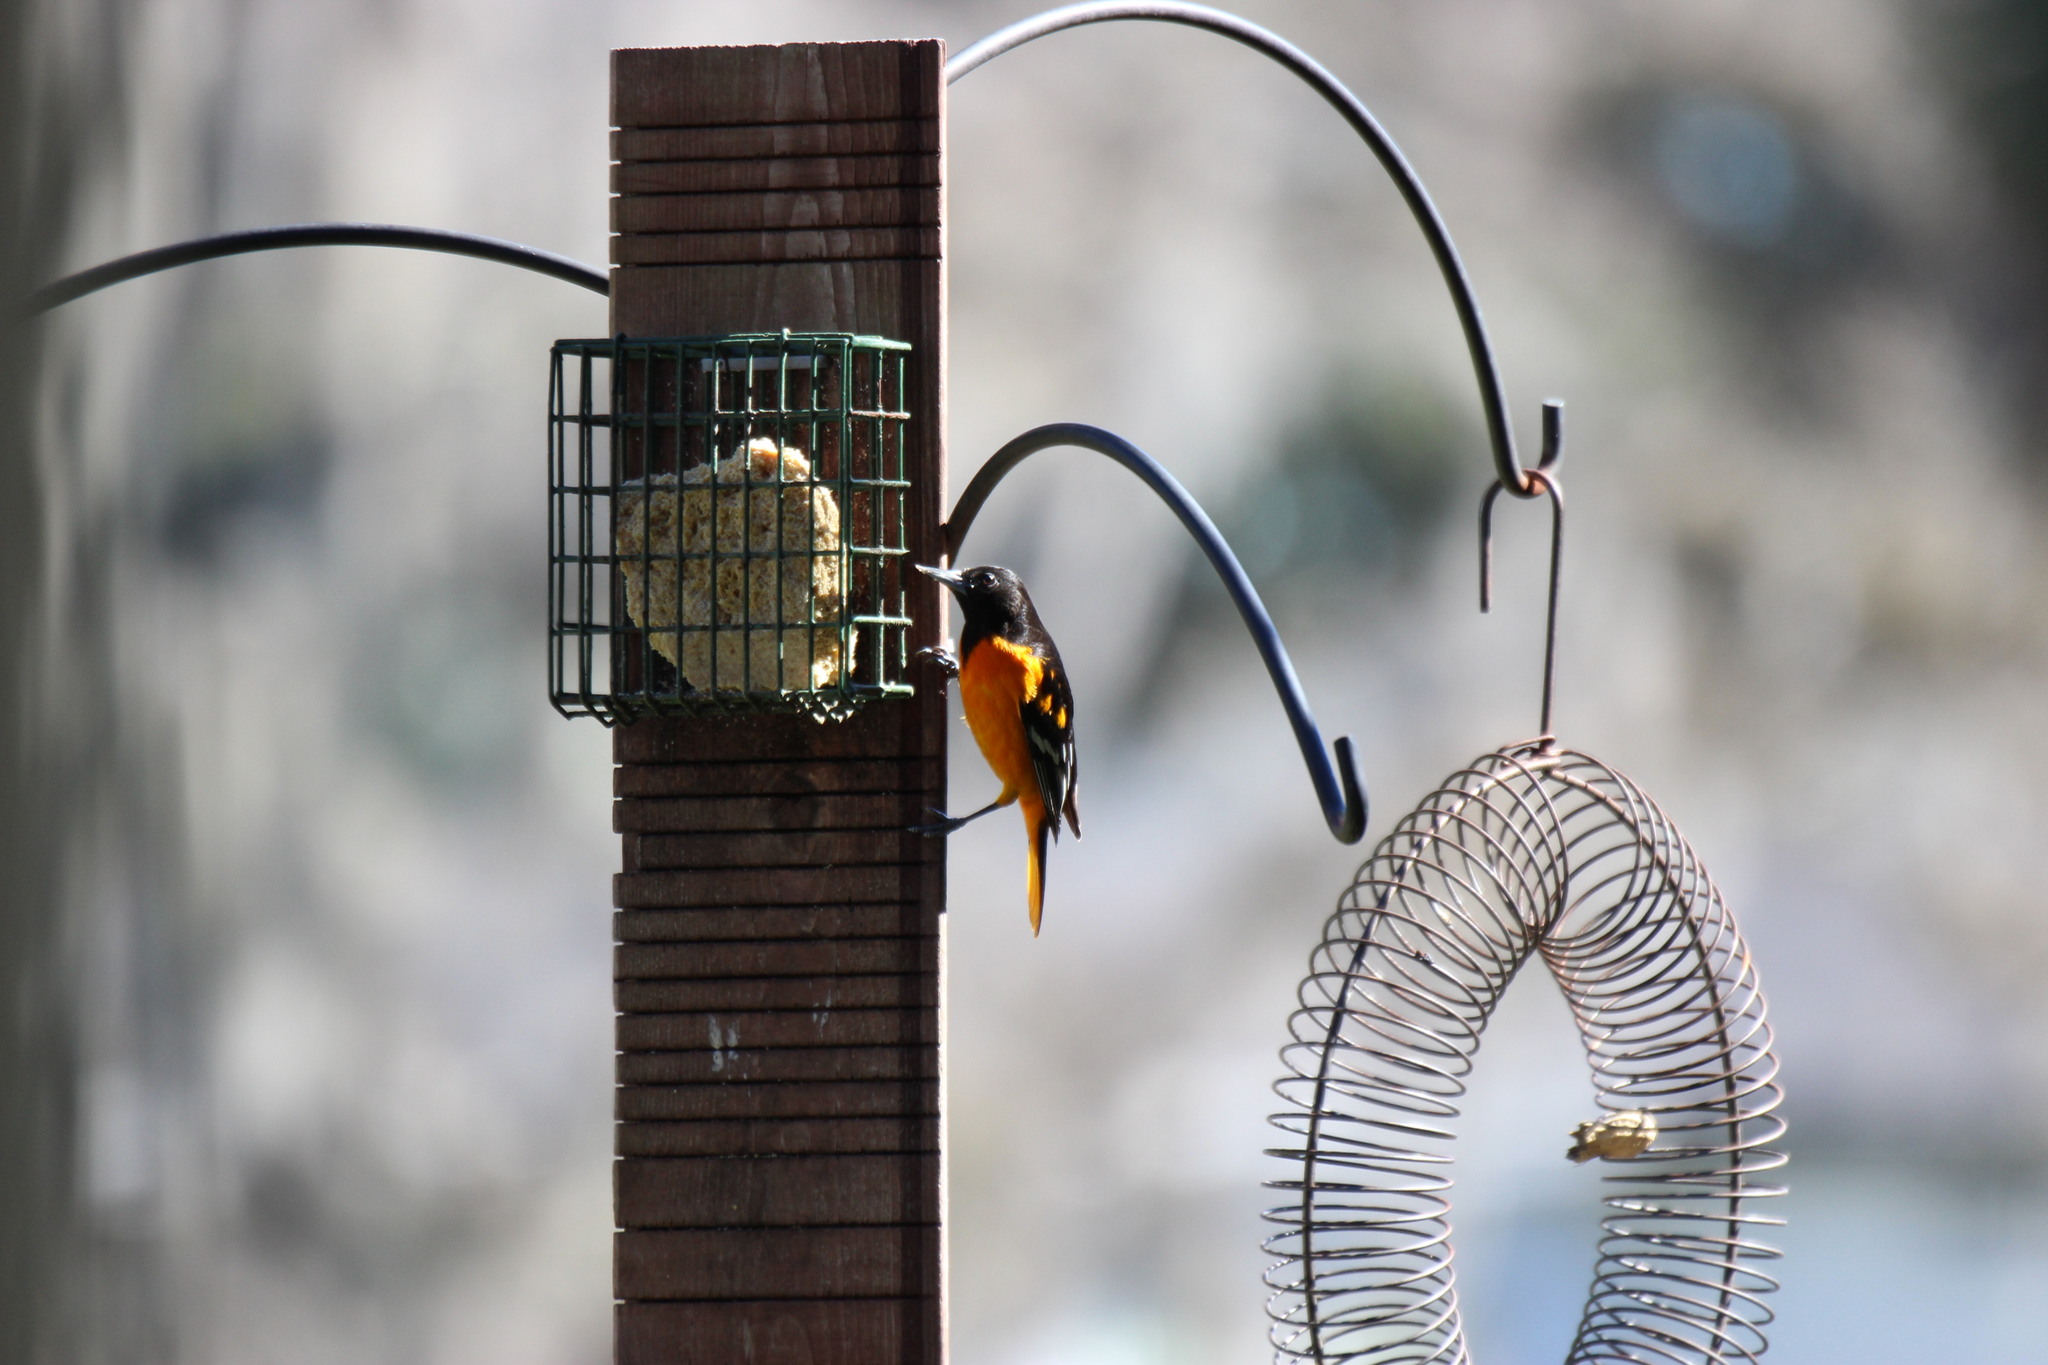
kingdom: Animalia
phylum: Chordata
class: Aves
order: Passeriformes
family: Icteridae
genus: Icterus
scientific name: Icterus galbula
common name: Baltimore oriole
